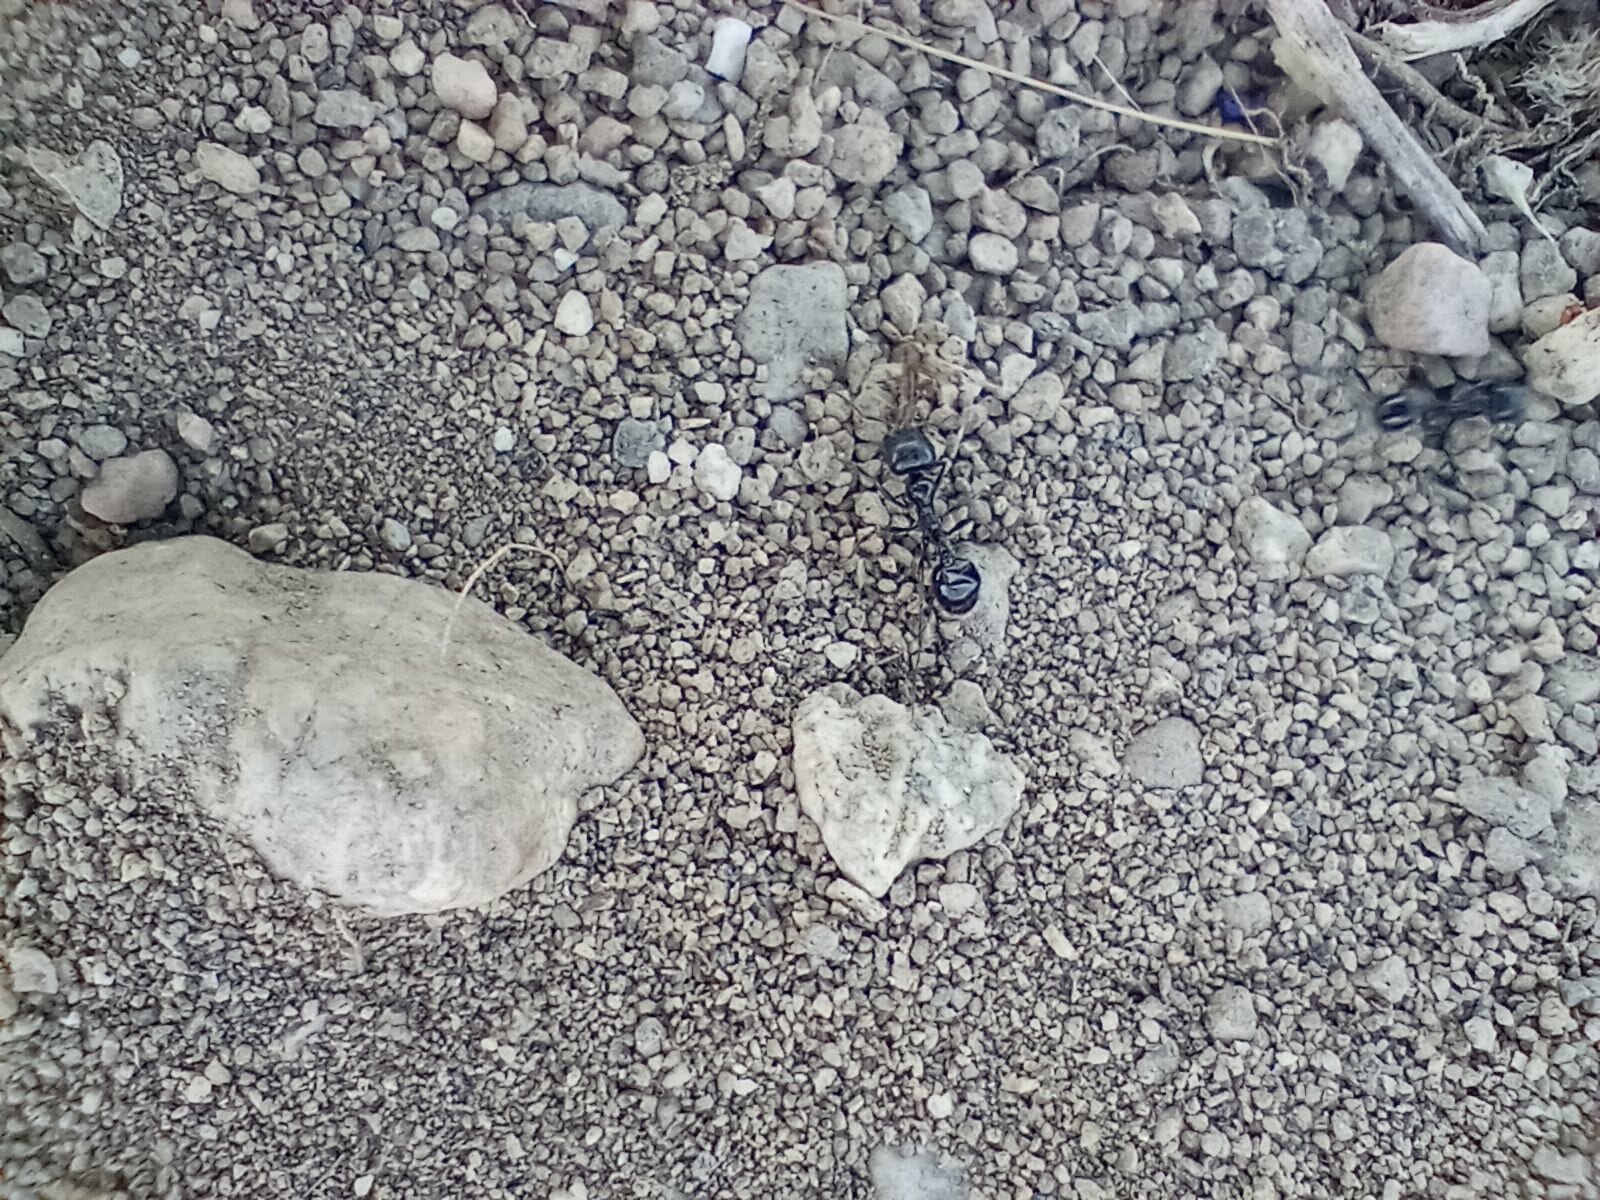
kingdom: Animalia
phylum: Arthropoda
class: Insecta
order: Hymenoptera
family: Formicidae
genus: Messor
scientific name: Messor pergandei
